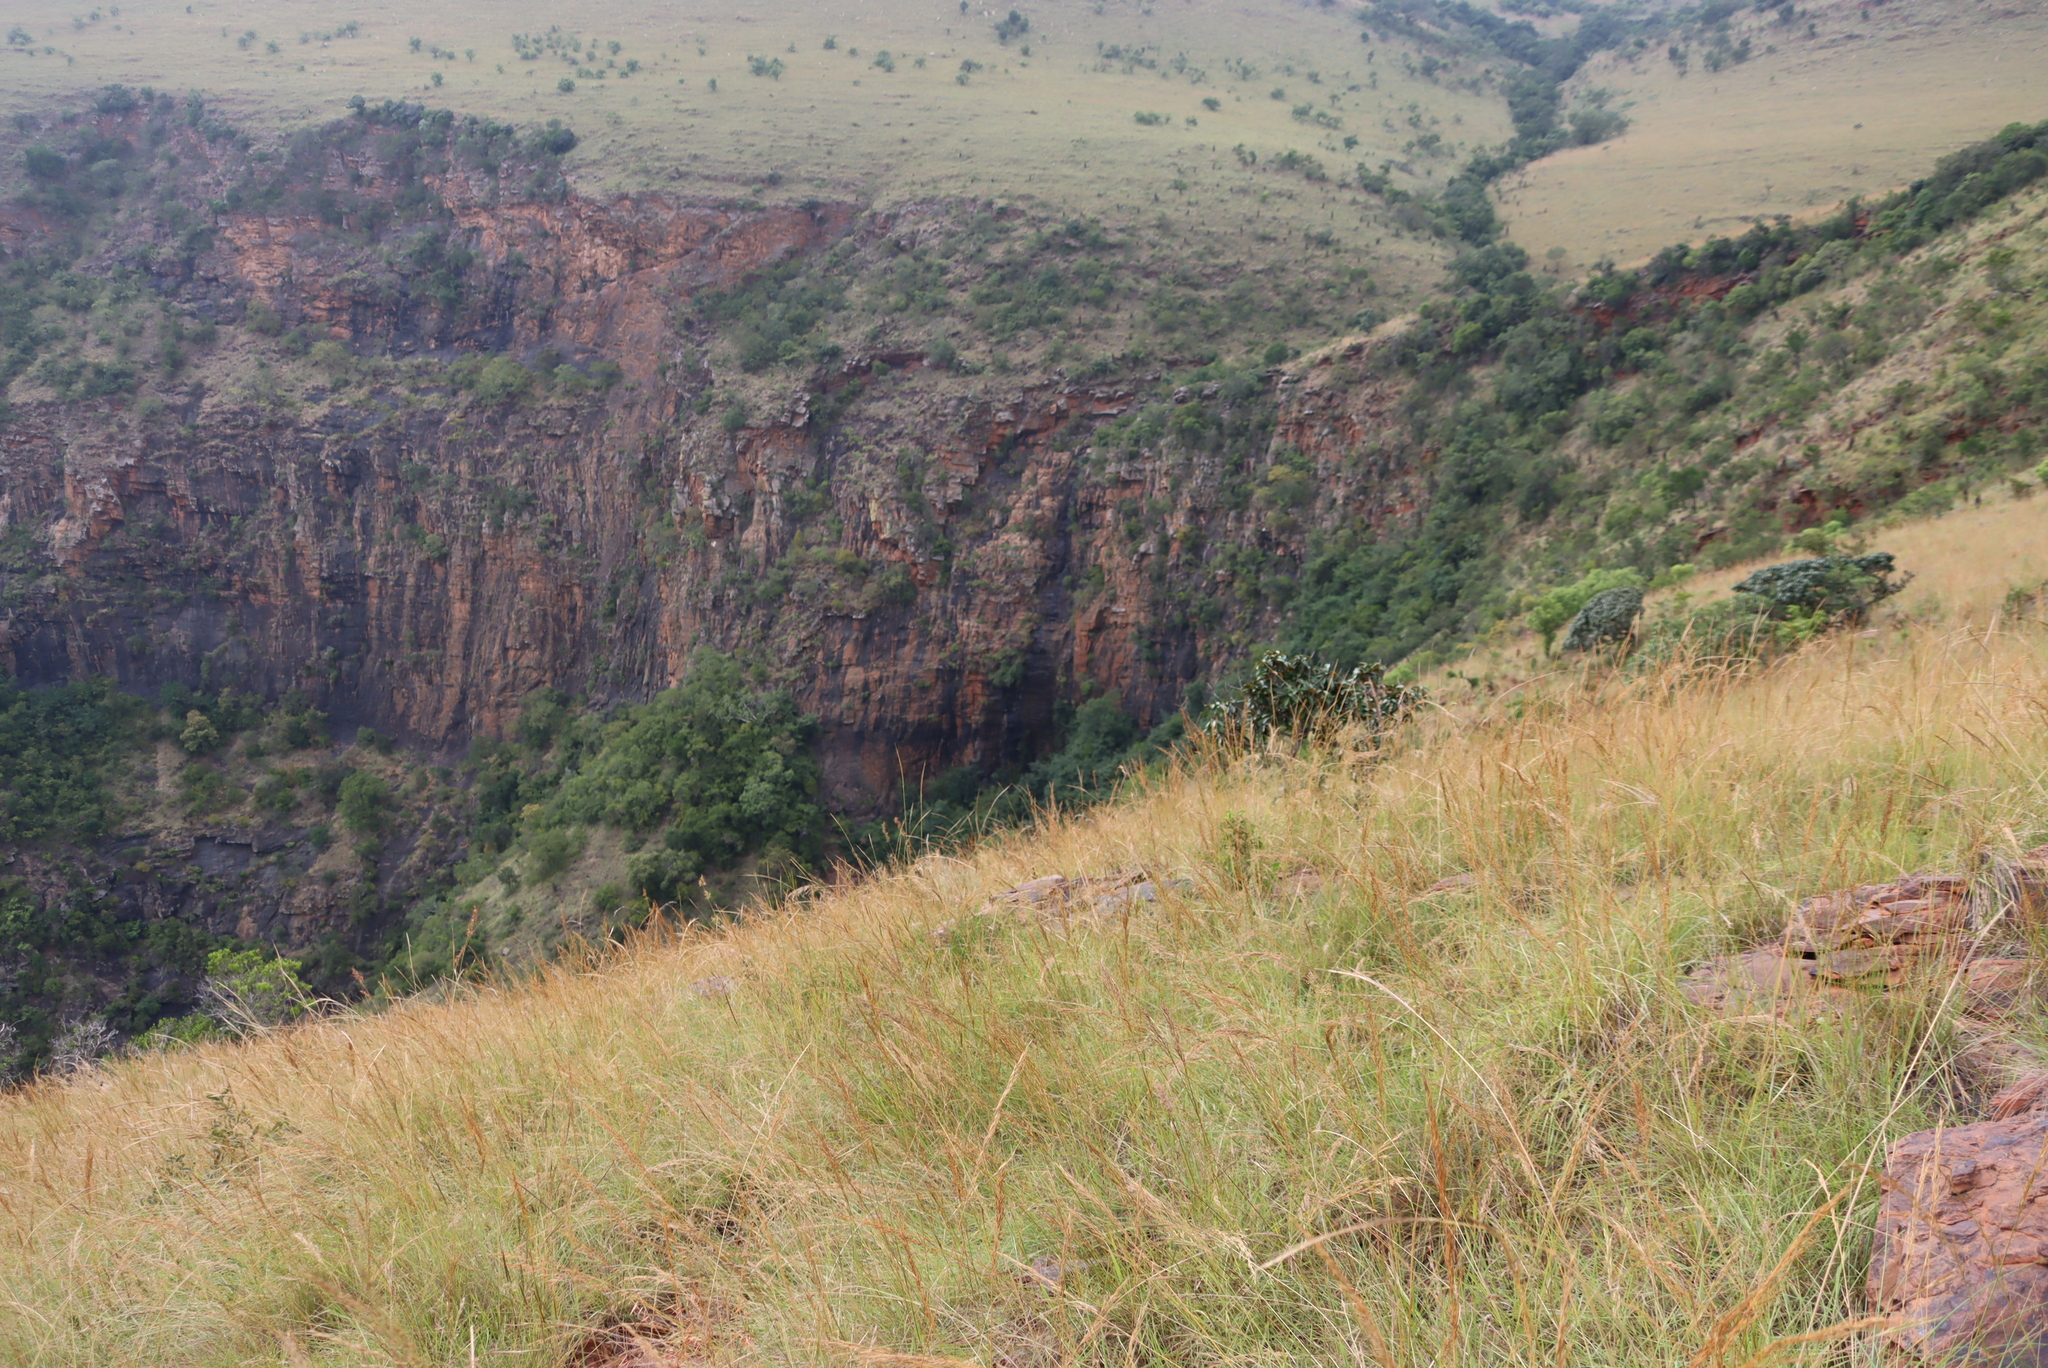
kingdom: Plantae
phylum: Tracheophyta
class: Magnoliopsida
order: Ericales
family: Sapotaceae
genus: Englerophytum
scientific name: Englerophytum magalismontanum
